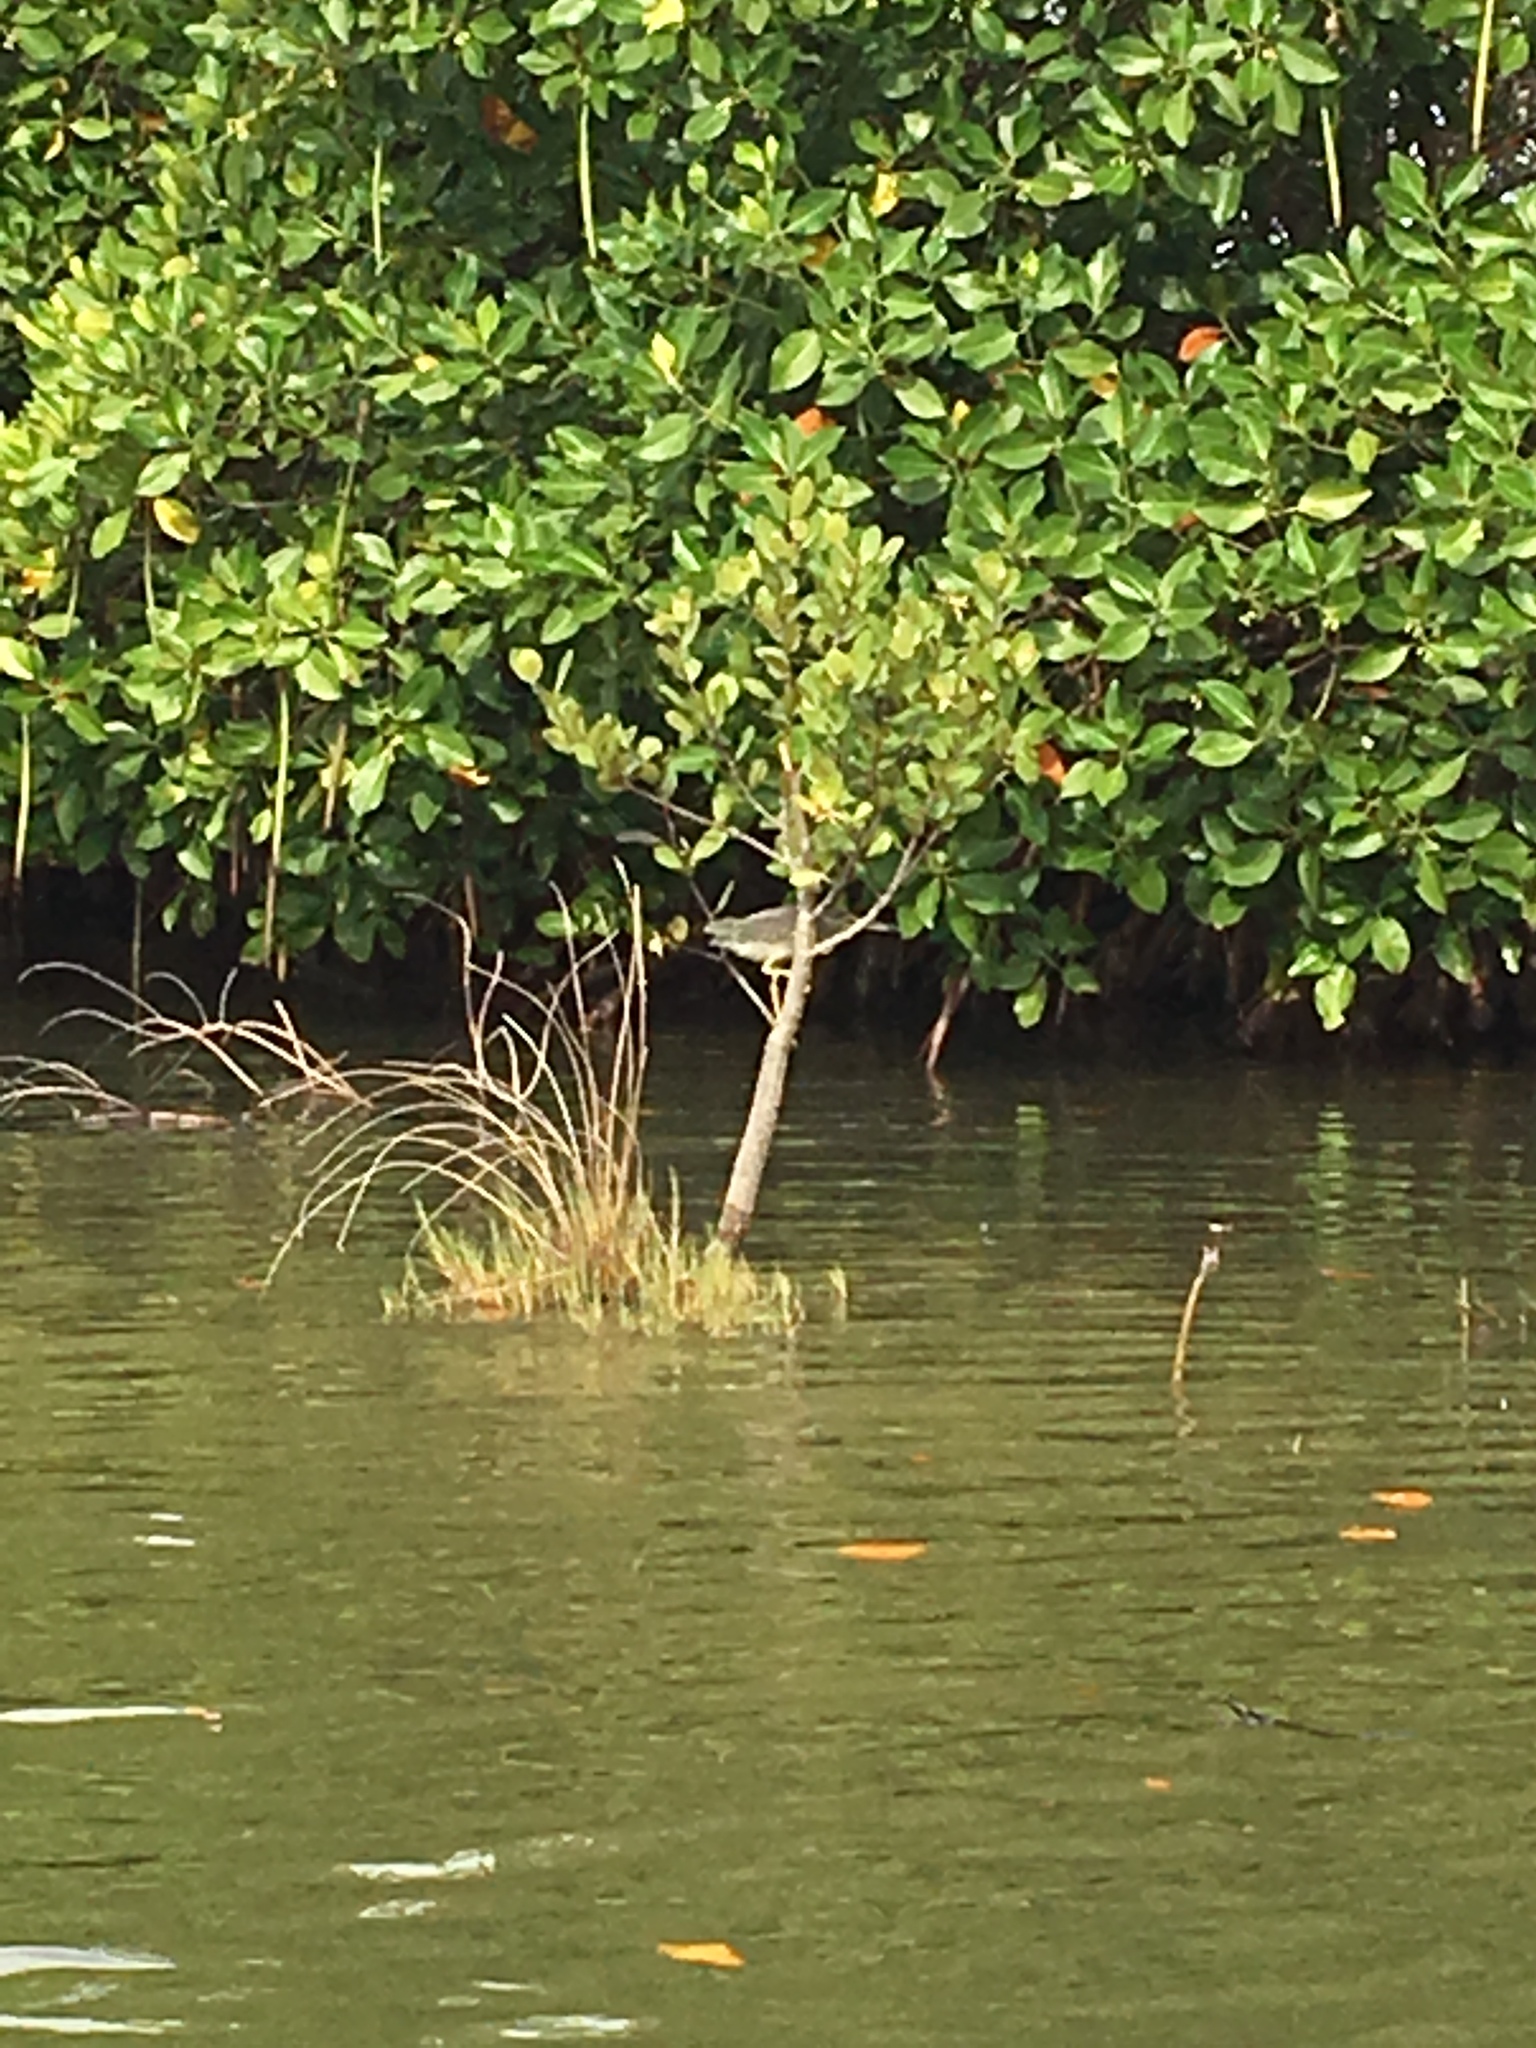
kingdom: Animalia
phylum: Chordata
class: Aves
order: Pelecaniformes
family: Ardeidae
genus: Butorides
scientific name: Butorides striata
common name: Striated heron
